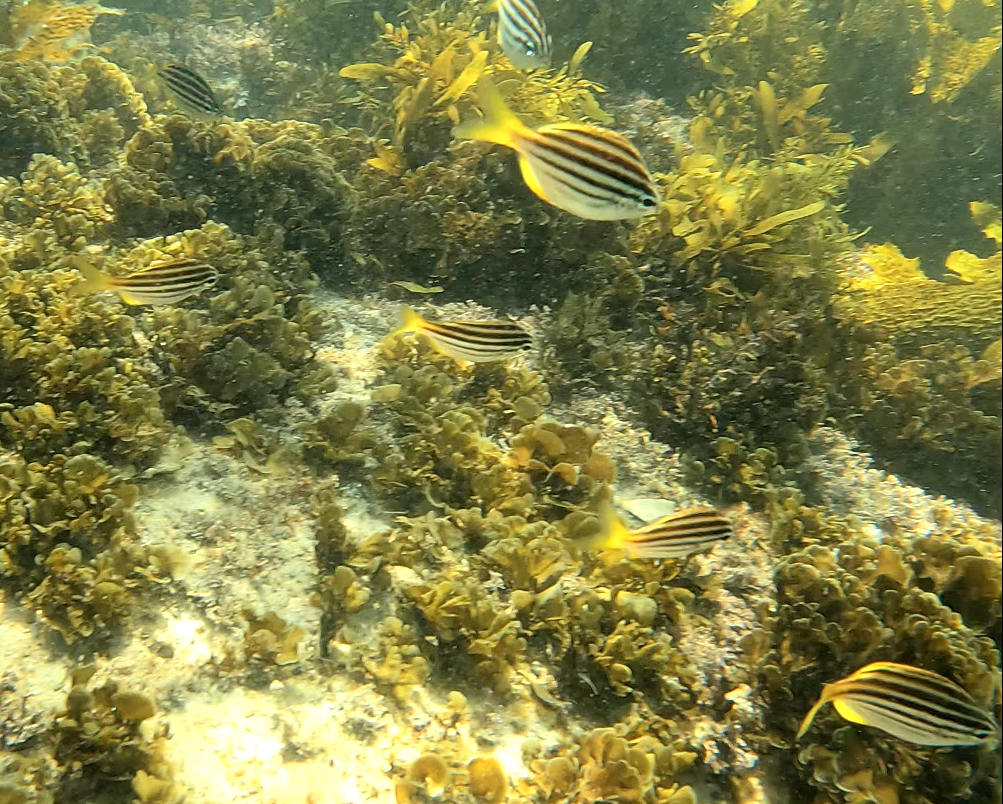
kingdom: Animalia
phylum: Chordata
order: Perciformes
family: Kyphosidae
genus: Atypichthys
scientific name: Atypichthys strigatus
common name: Australian mado
